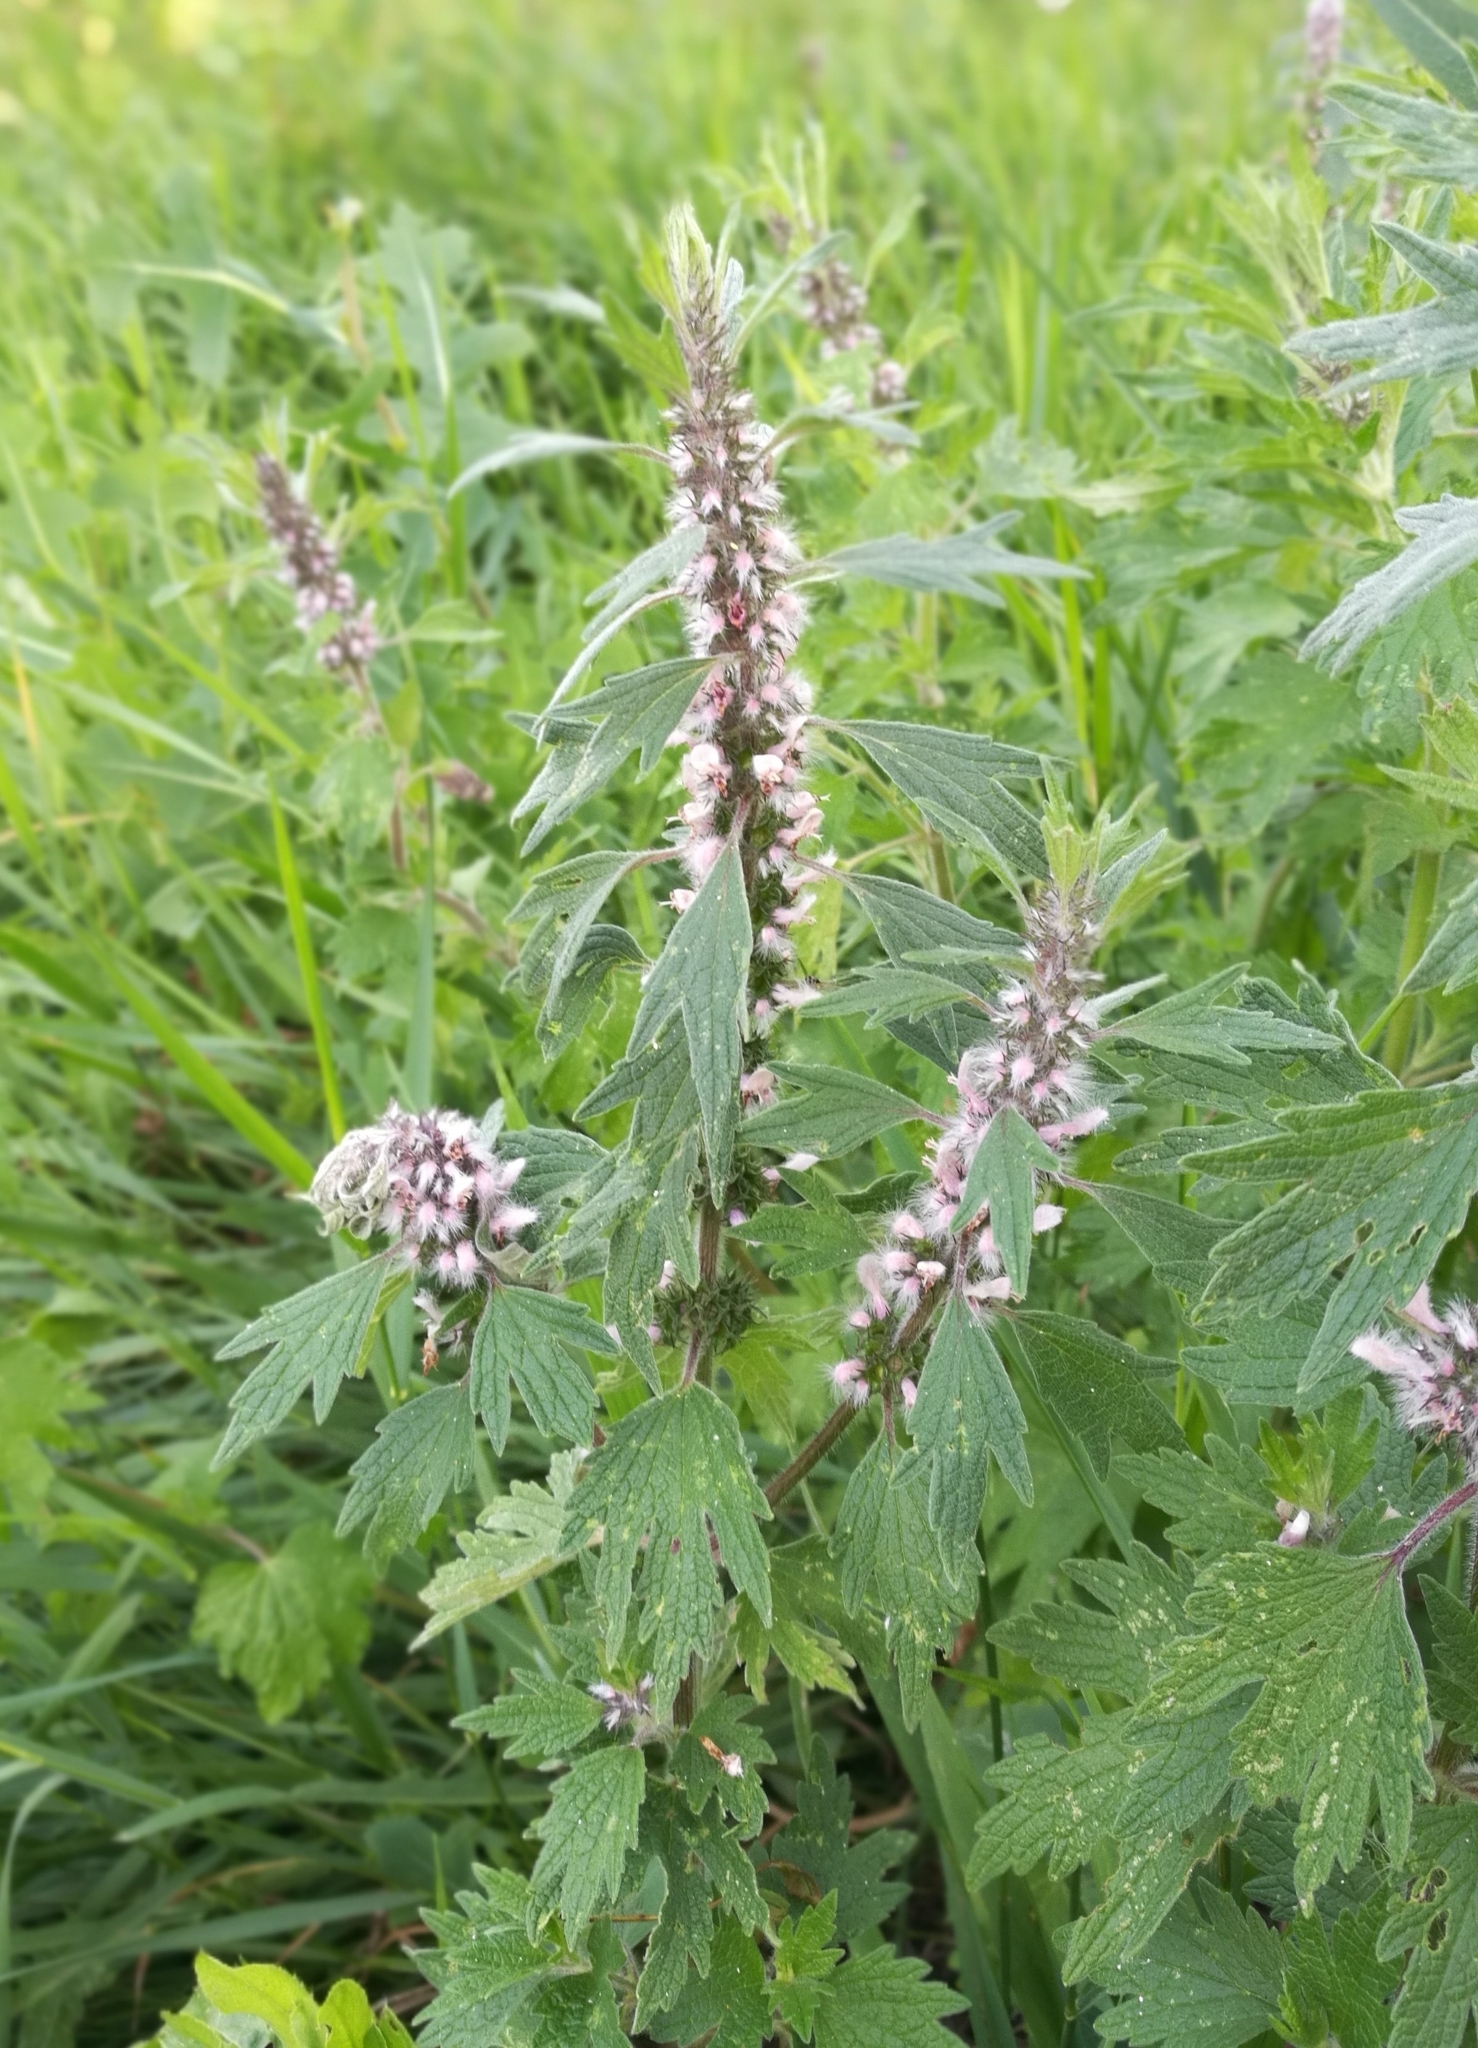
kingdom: Plantae
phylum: Tracheophyta
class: Magnoliopsida
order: Lamiales
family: Lamiaceae
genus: Leonurus
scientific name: Leonurus quinquelobatus
